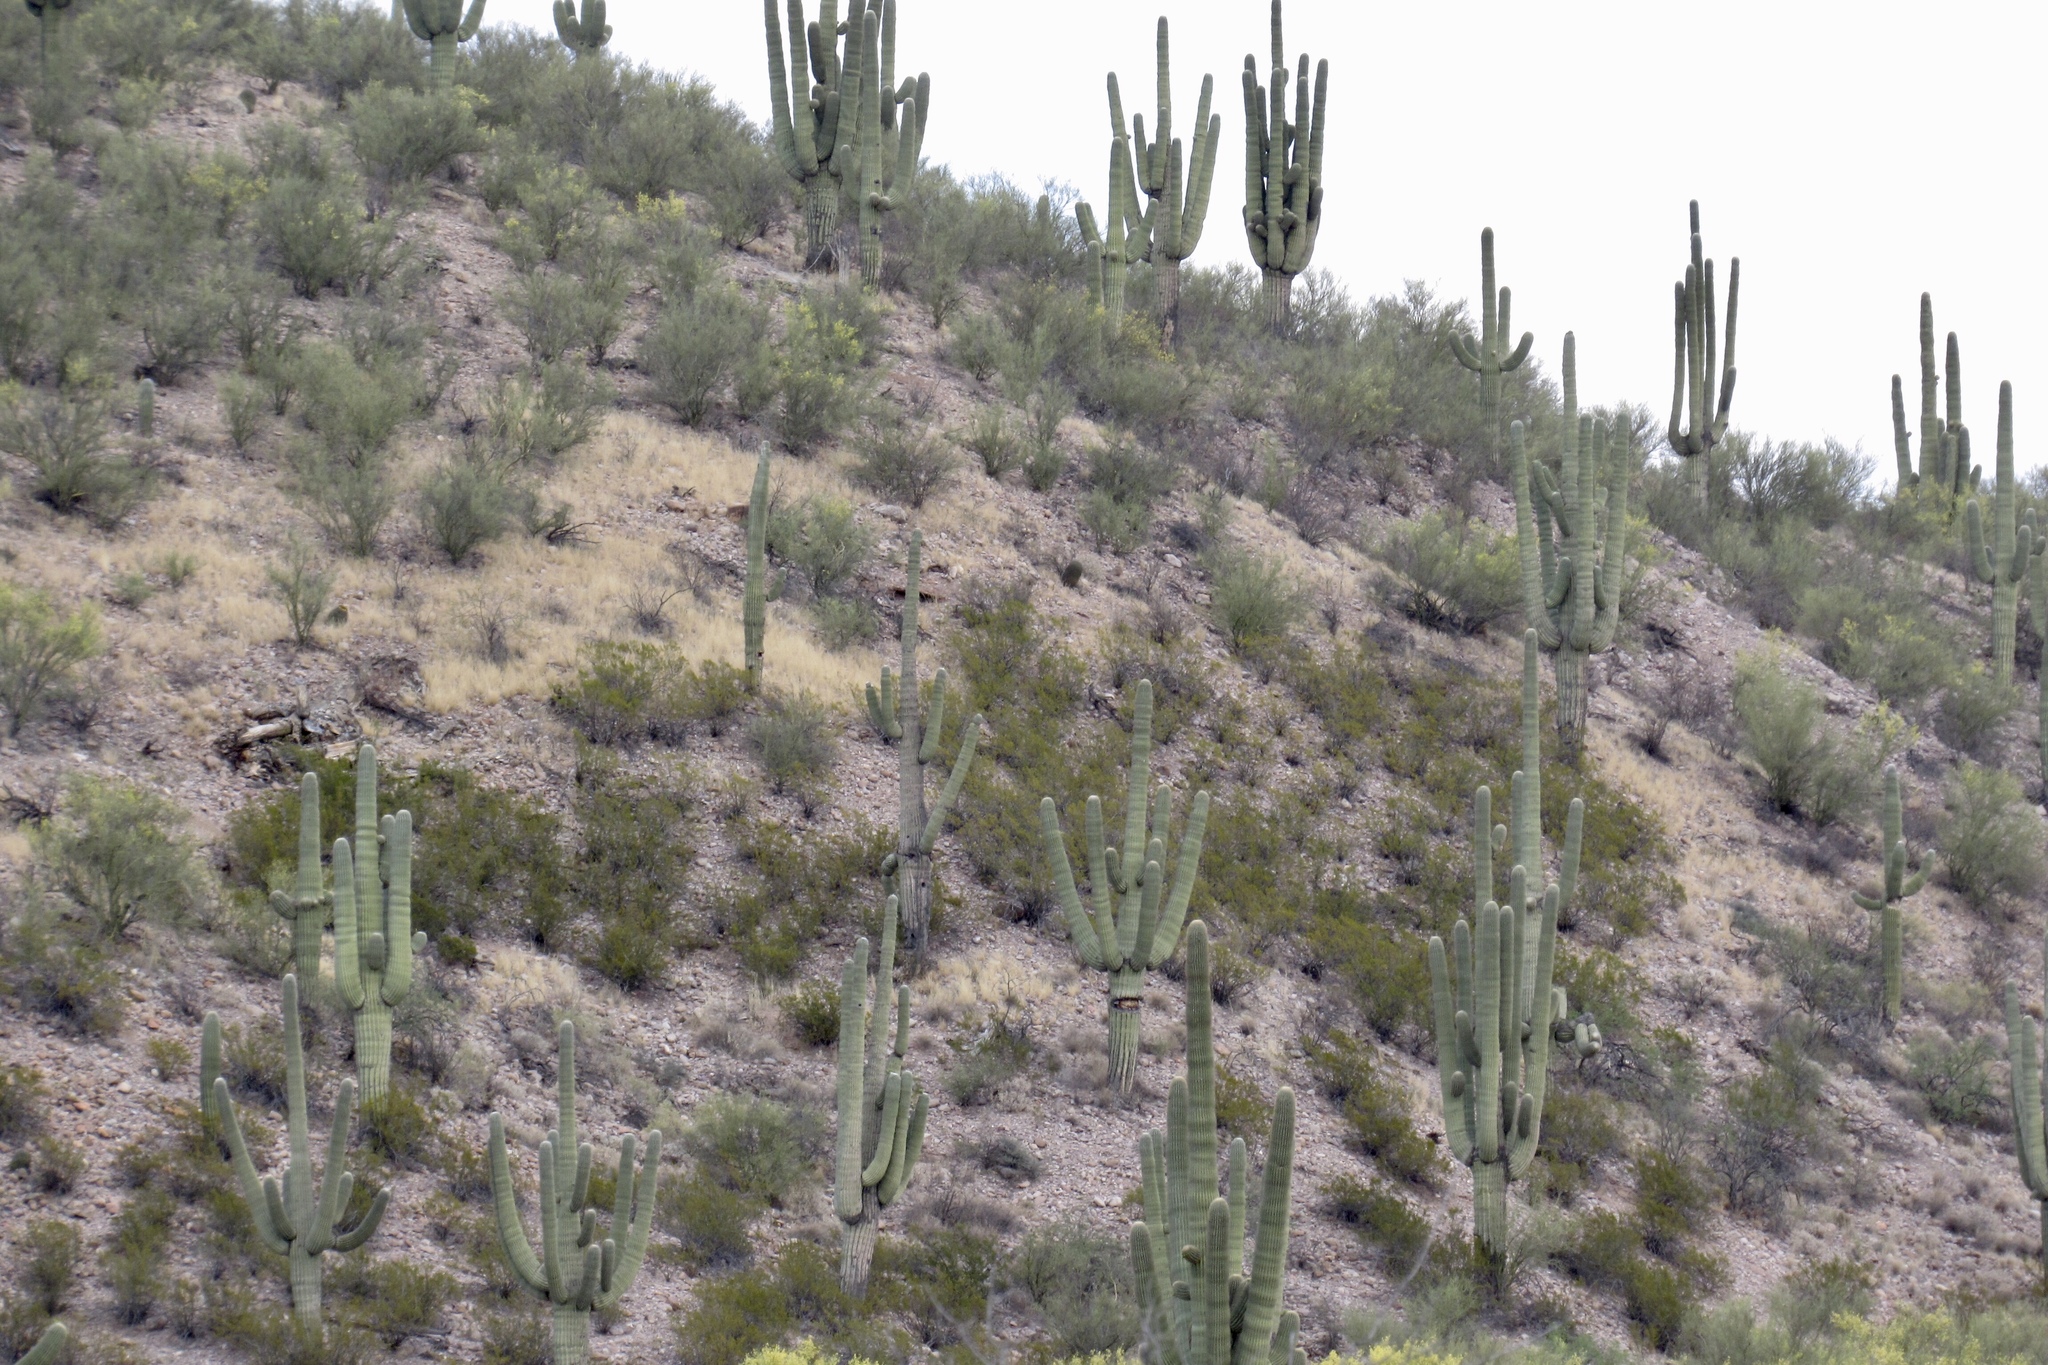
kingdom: Plantae
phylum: Tracheophyta
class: Magnoliopsida
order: Caryophyllales
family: Cactaceae
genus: Carnegiea
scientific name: Carnegiea gigantea
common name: Saguaro
